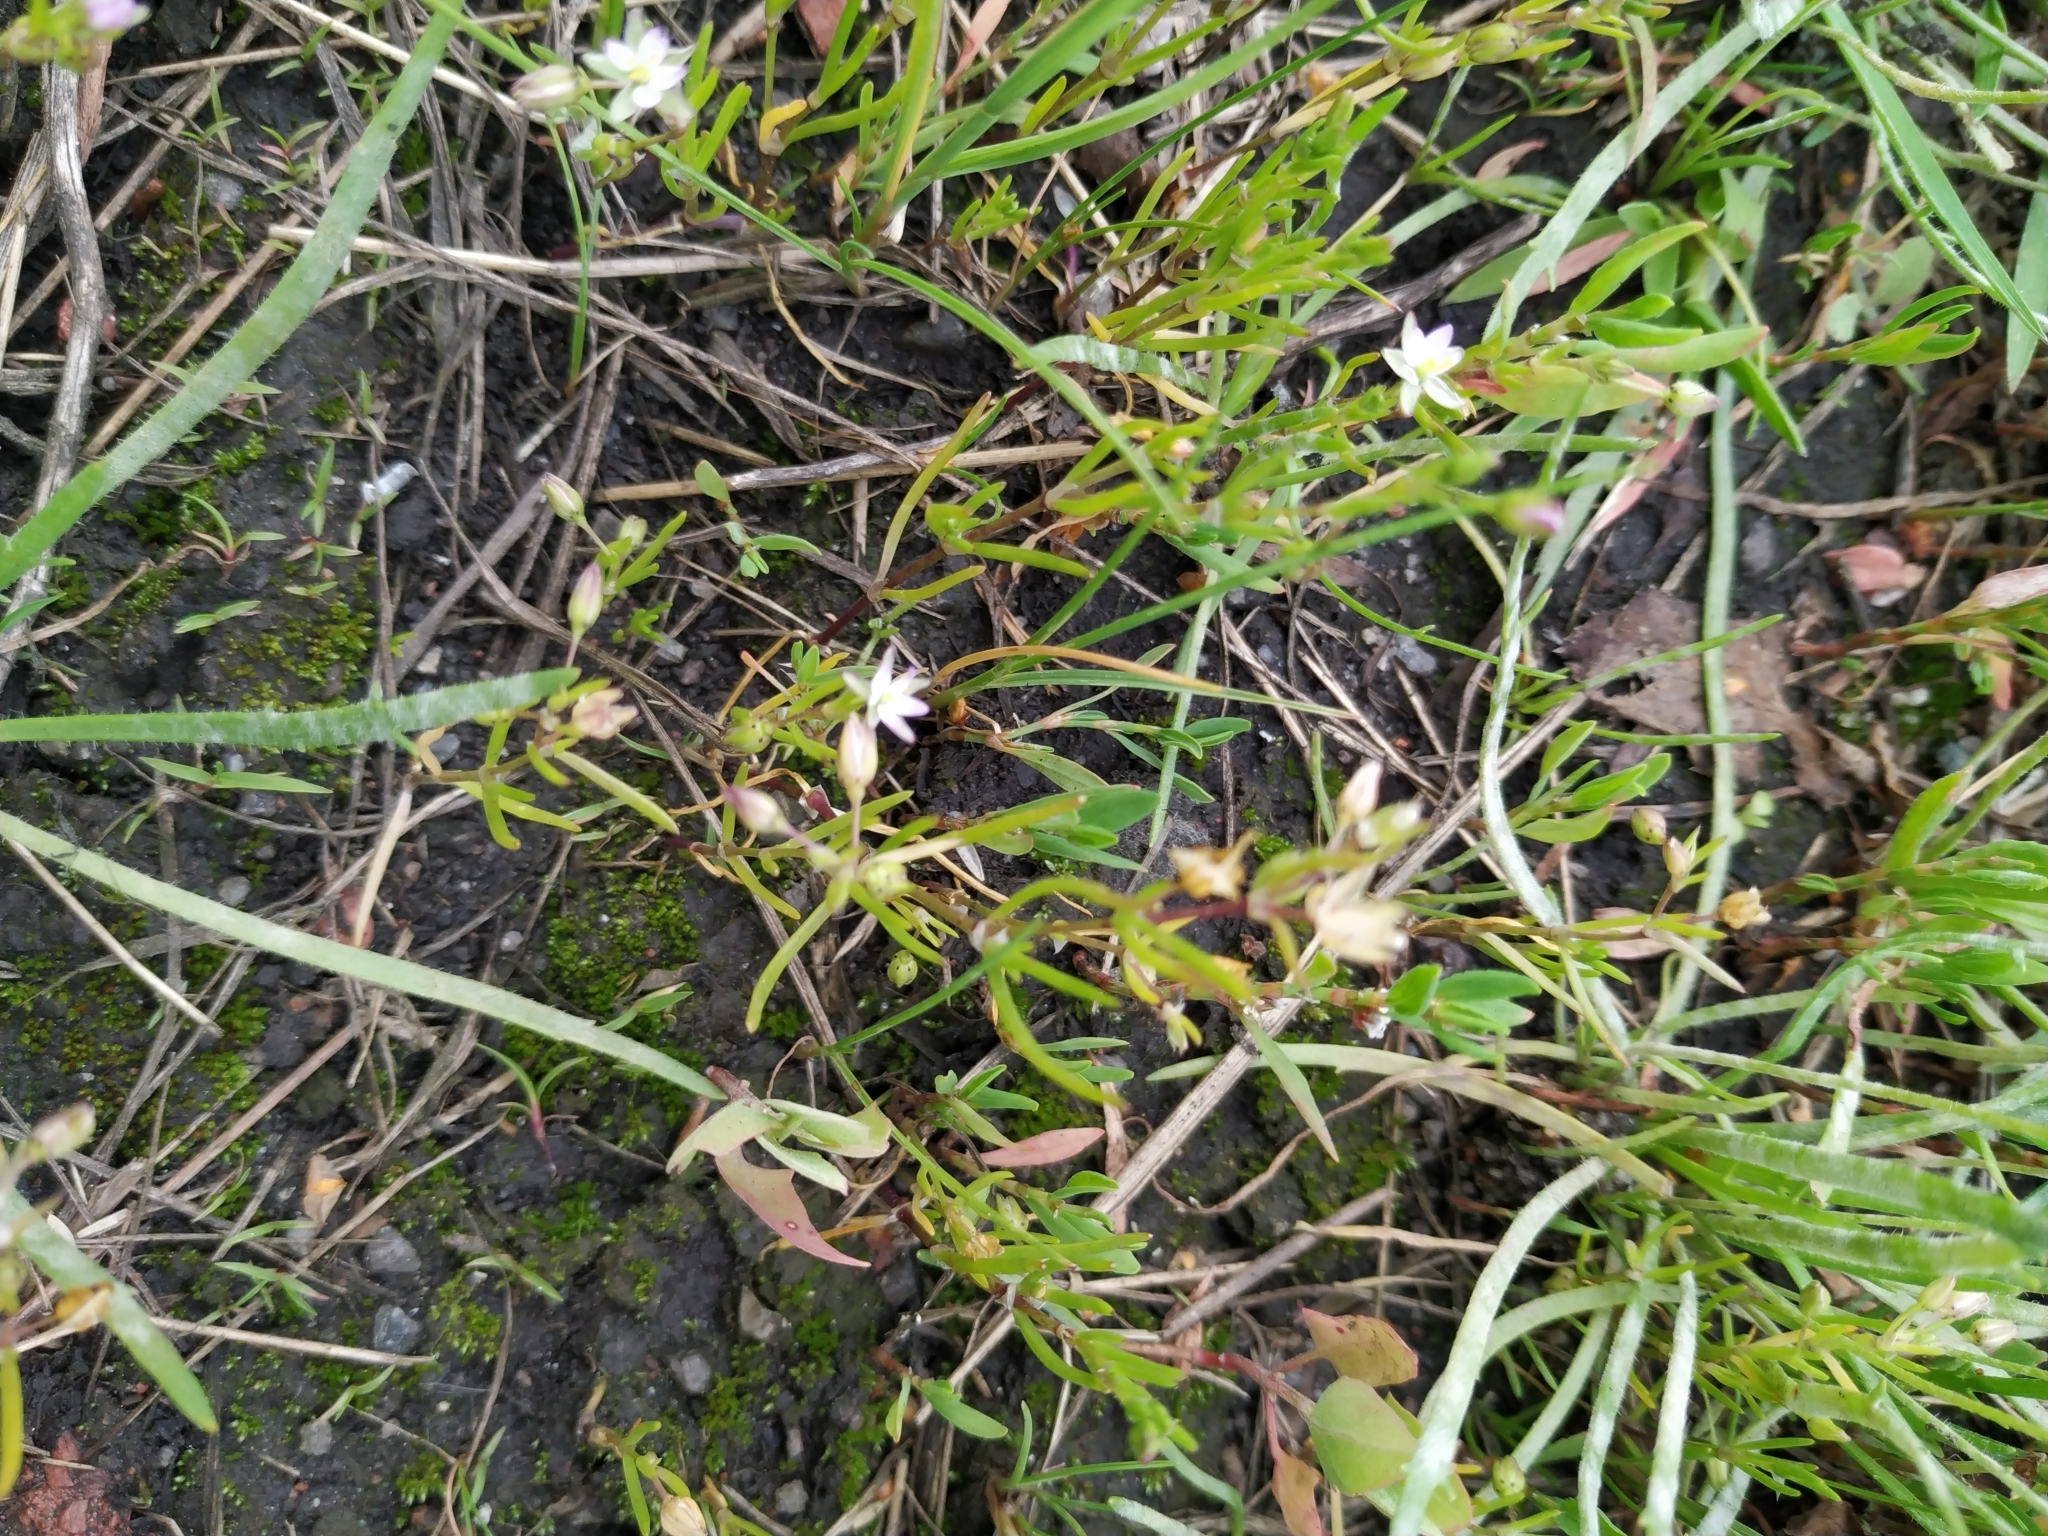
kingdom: Plantae
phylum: Tracheophyta
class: Magnoliopsida
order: Caryophyllales
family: Caryophyllaceae
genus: Spergularia
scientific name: Spergularia marina
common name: Lesser sea-spurrey
